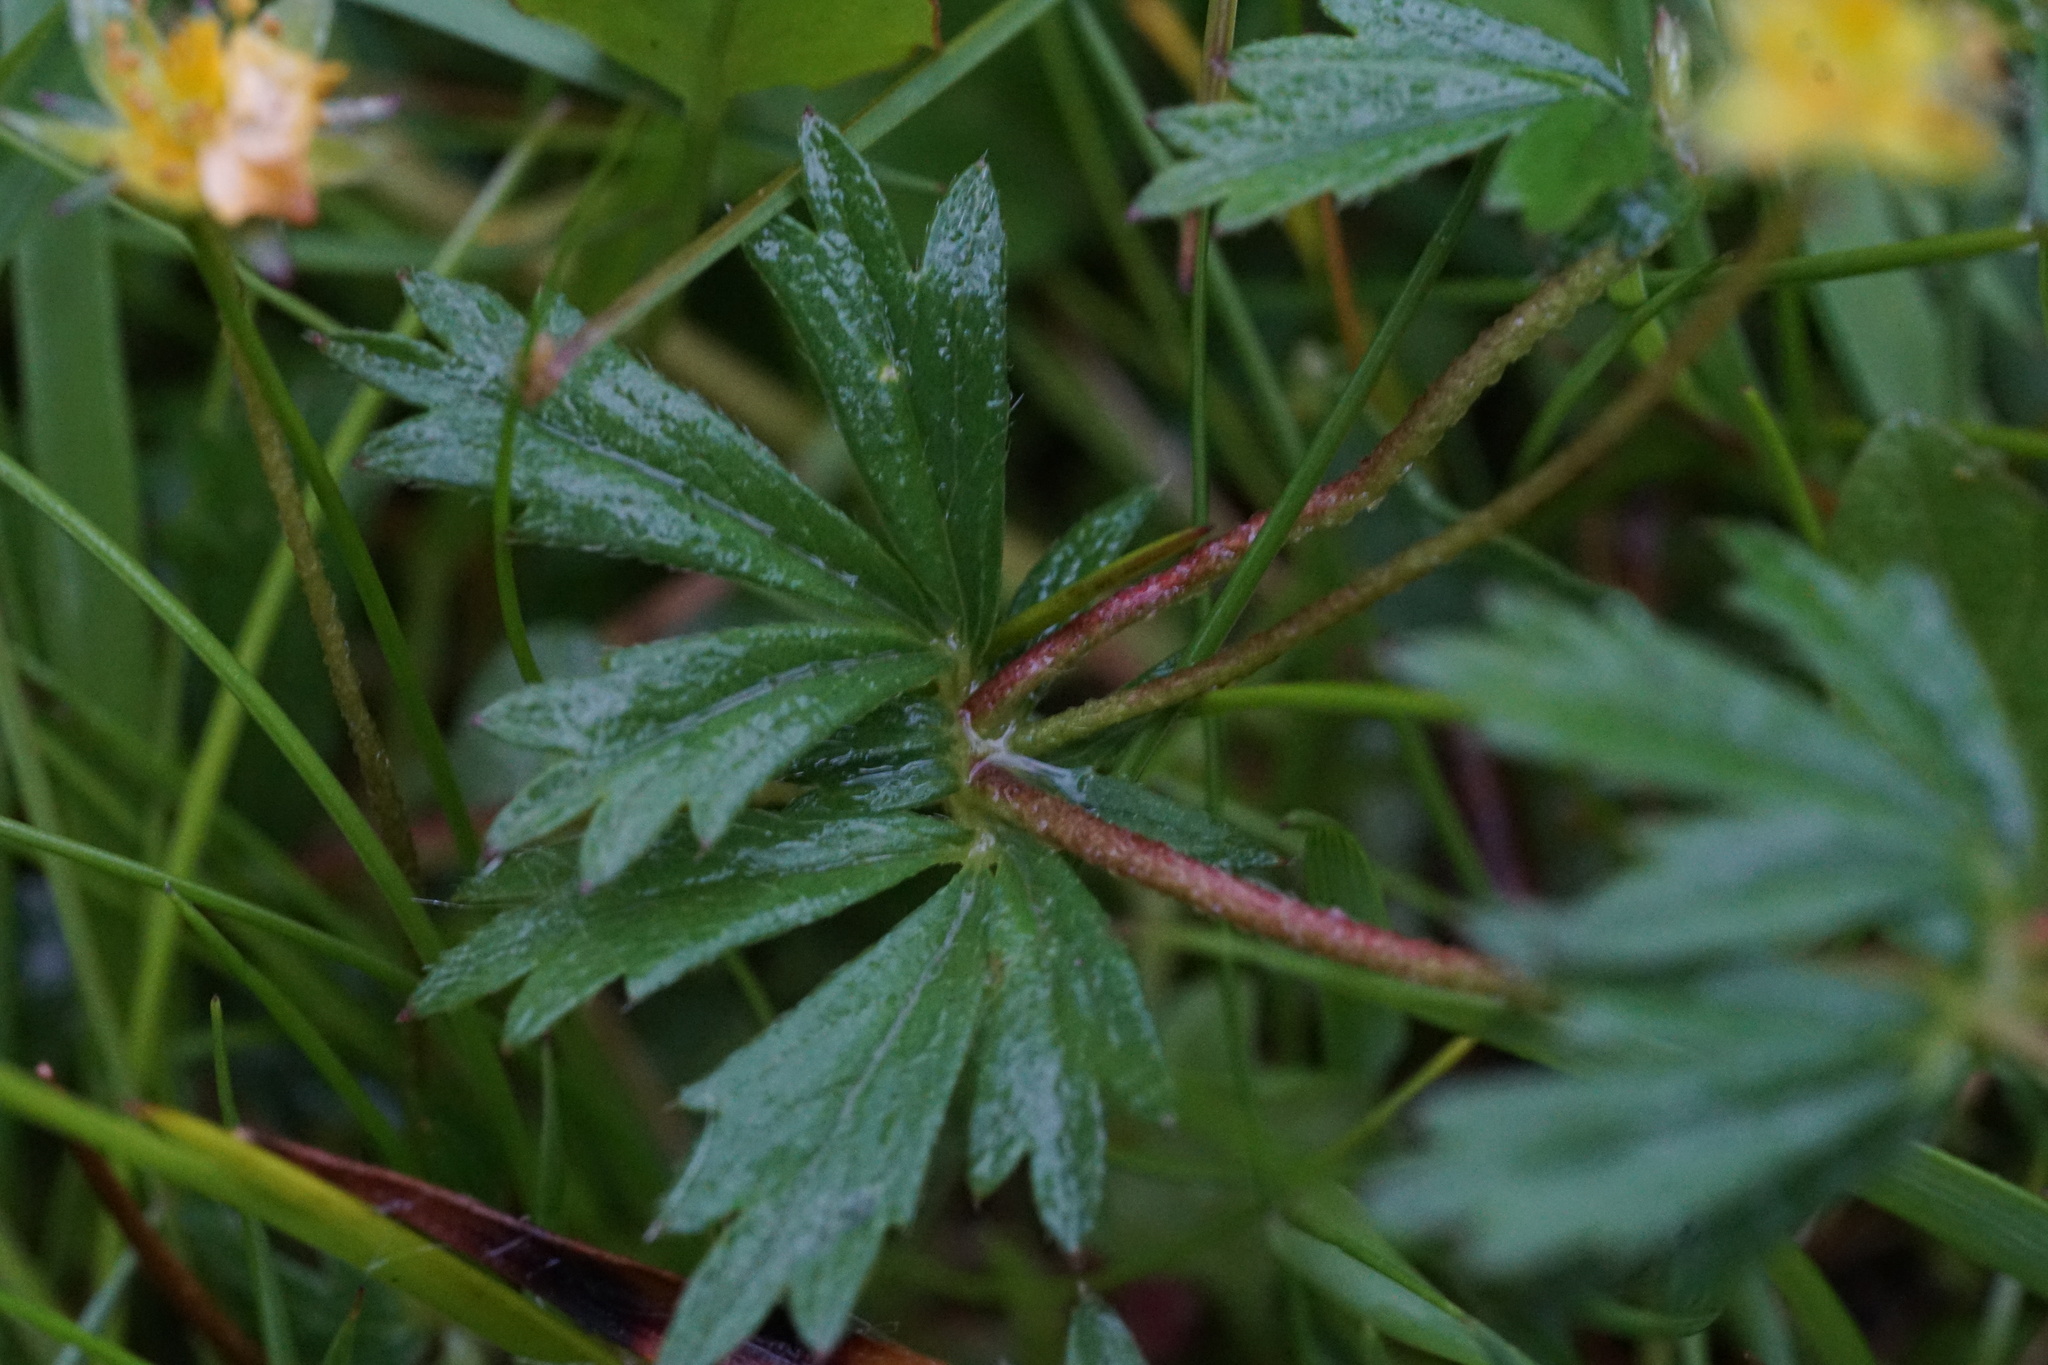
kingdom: Plantae
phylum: Tracheophyta
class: Magnoliopsida
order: Rosales
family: Rosaceae
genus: Potentilla
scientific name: Potentilla erecta
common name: Tormentil
